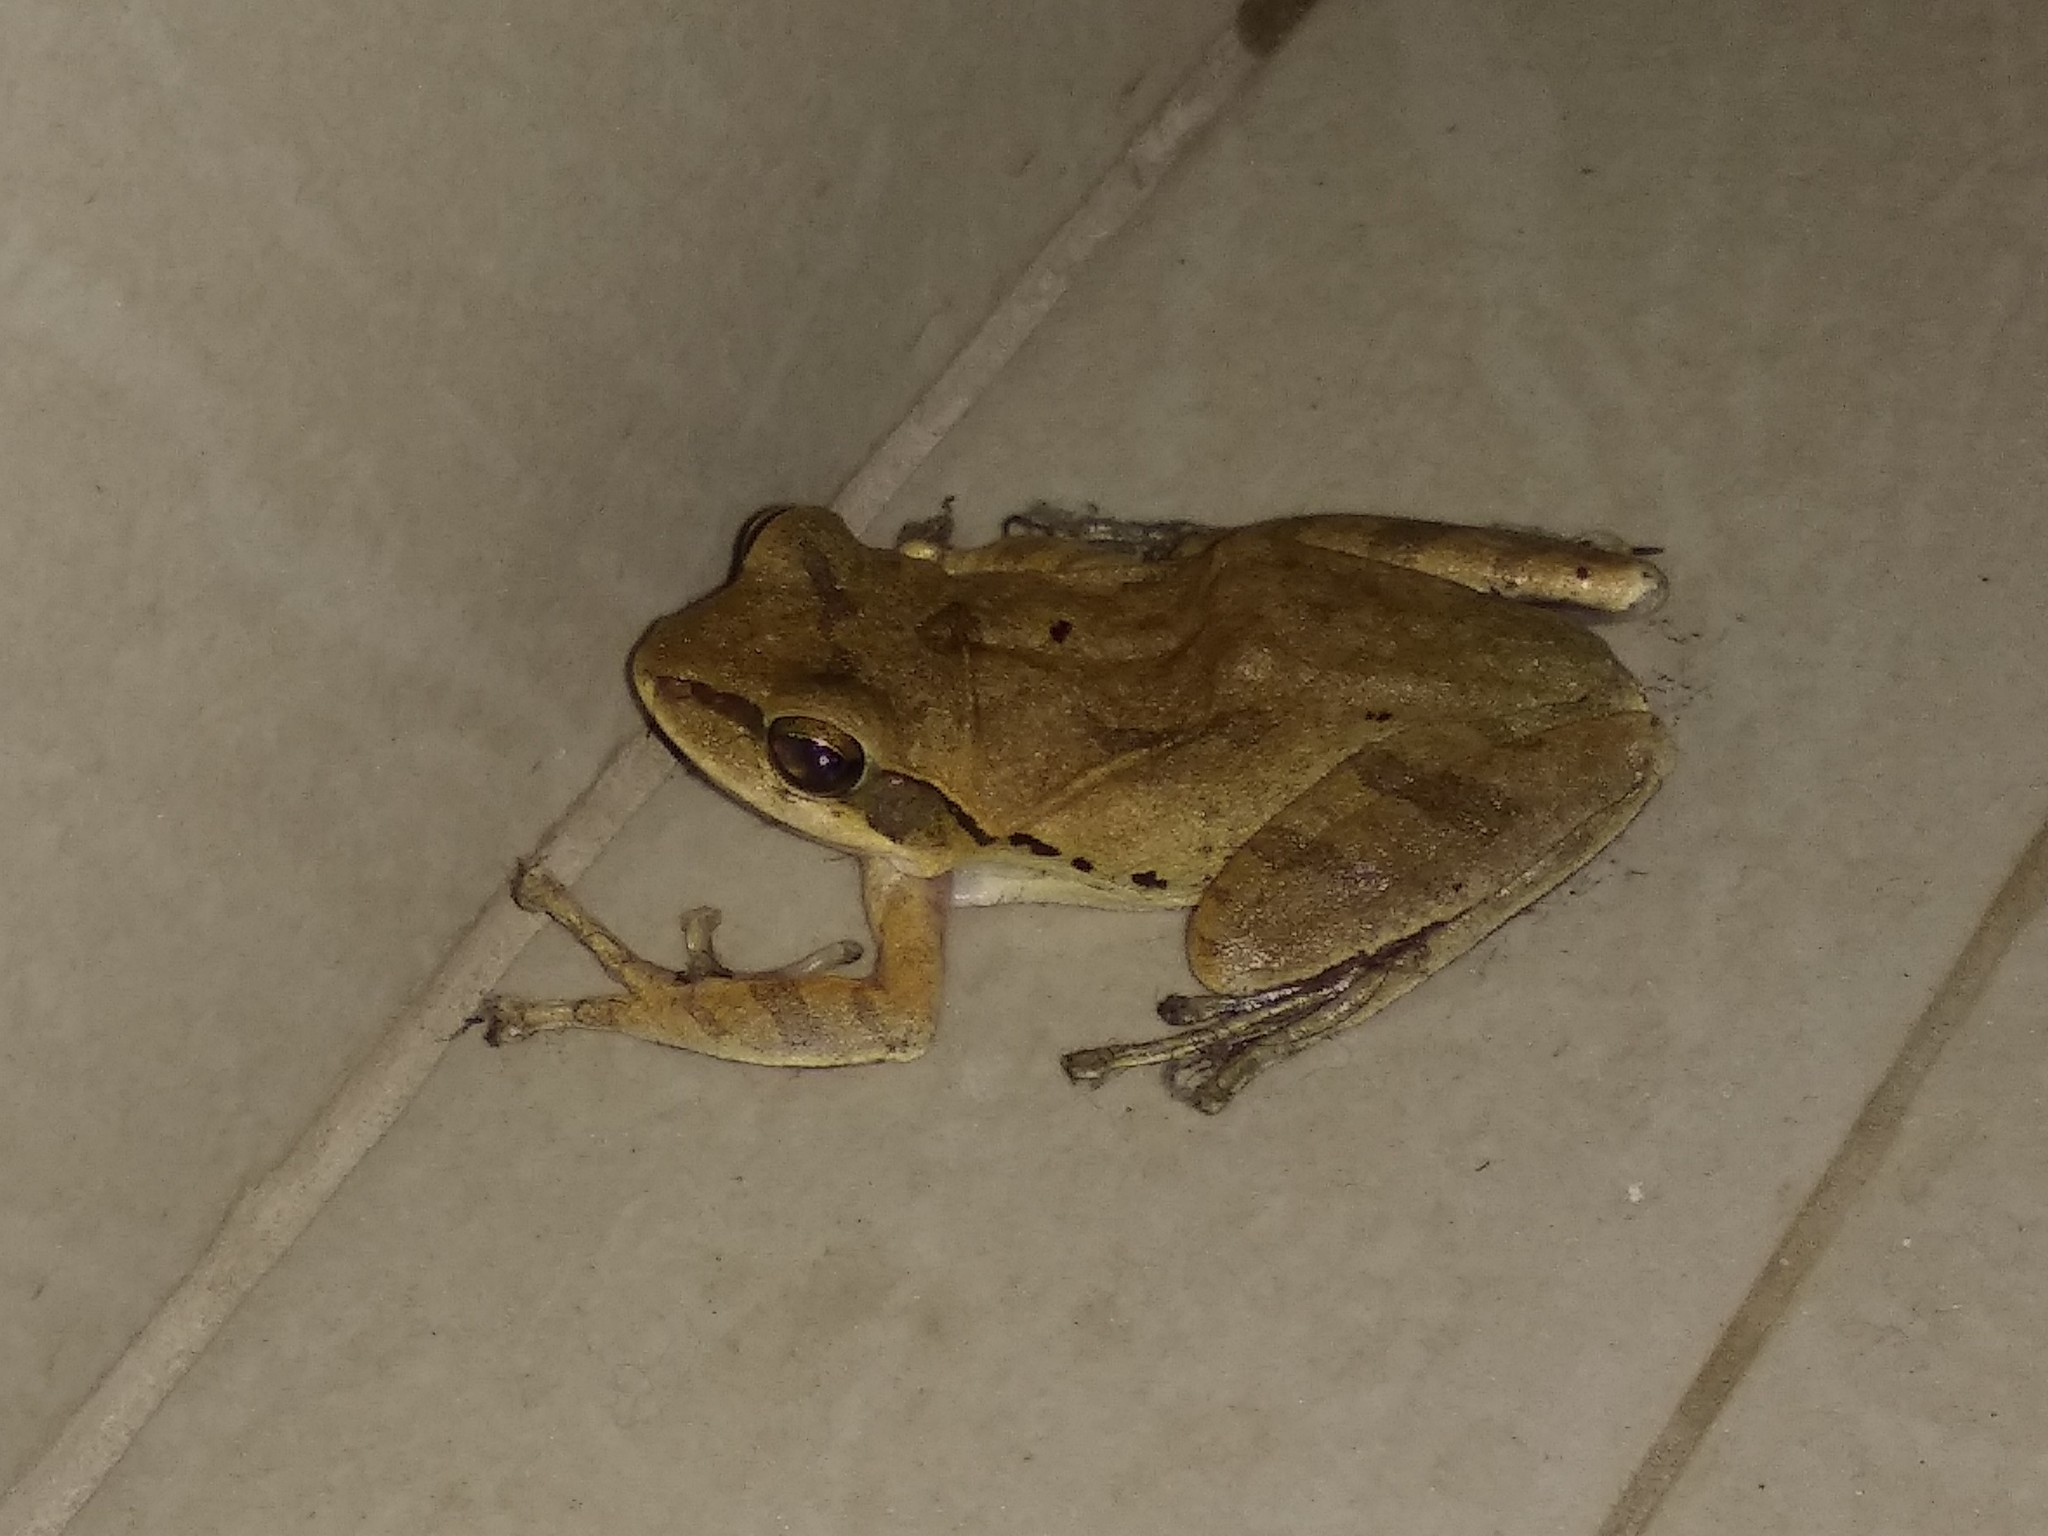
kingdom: Animalia
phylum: Chordata
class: Amphibia
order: Anura
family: Rhacophoridae
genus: Polypedates
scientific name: Polypedates maculatus
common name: Himalayan tree frog
